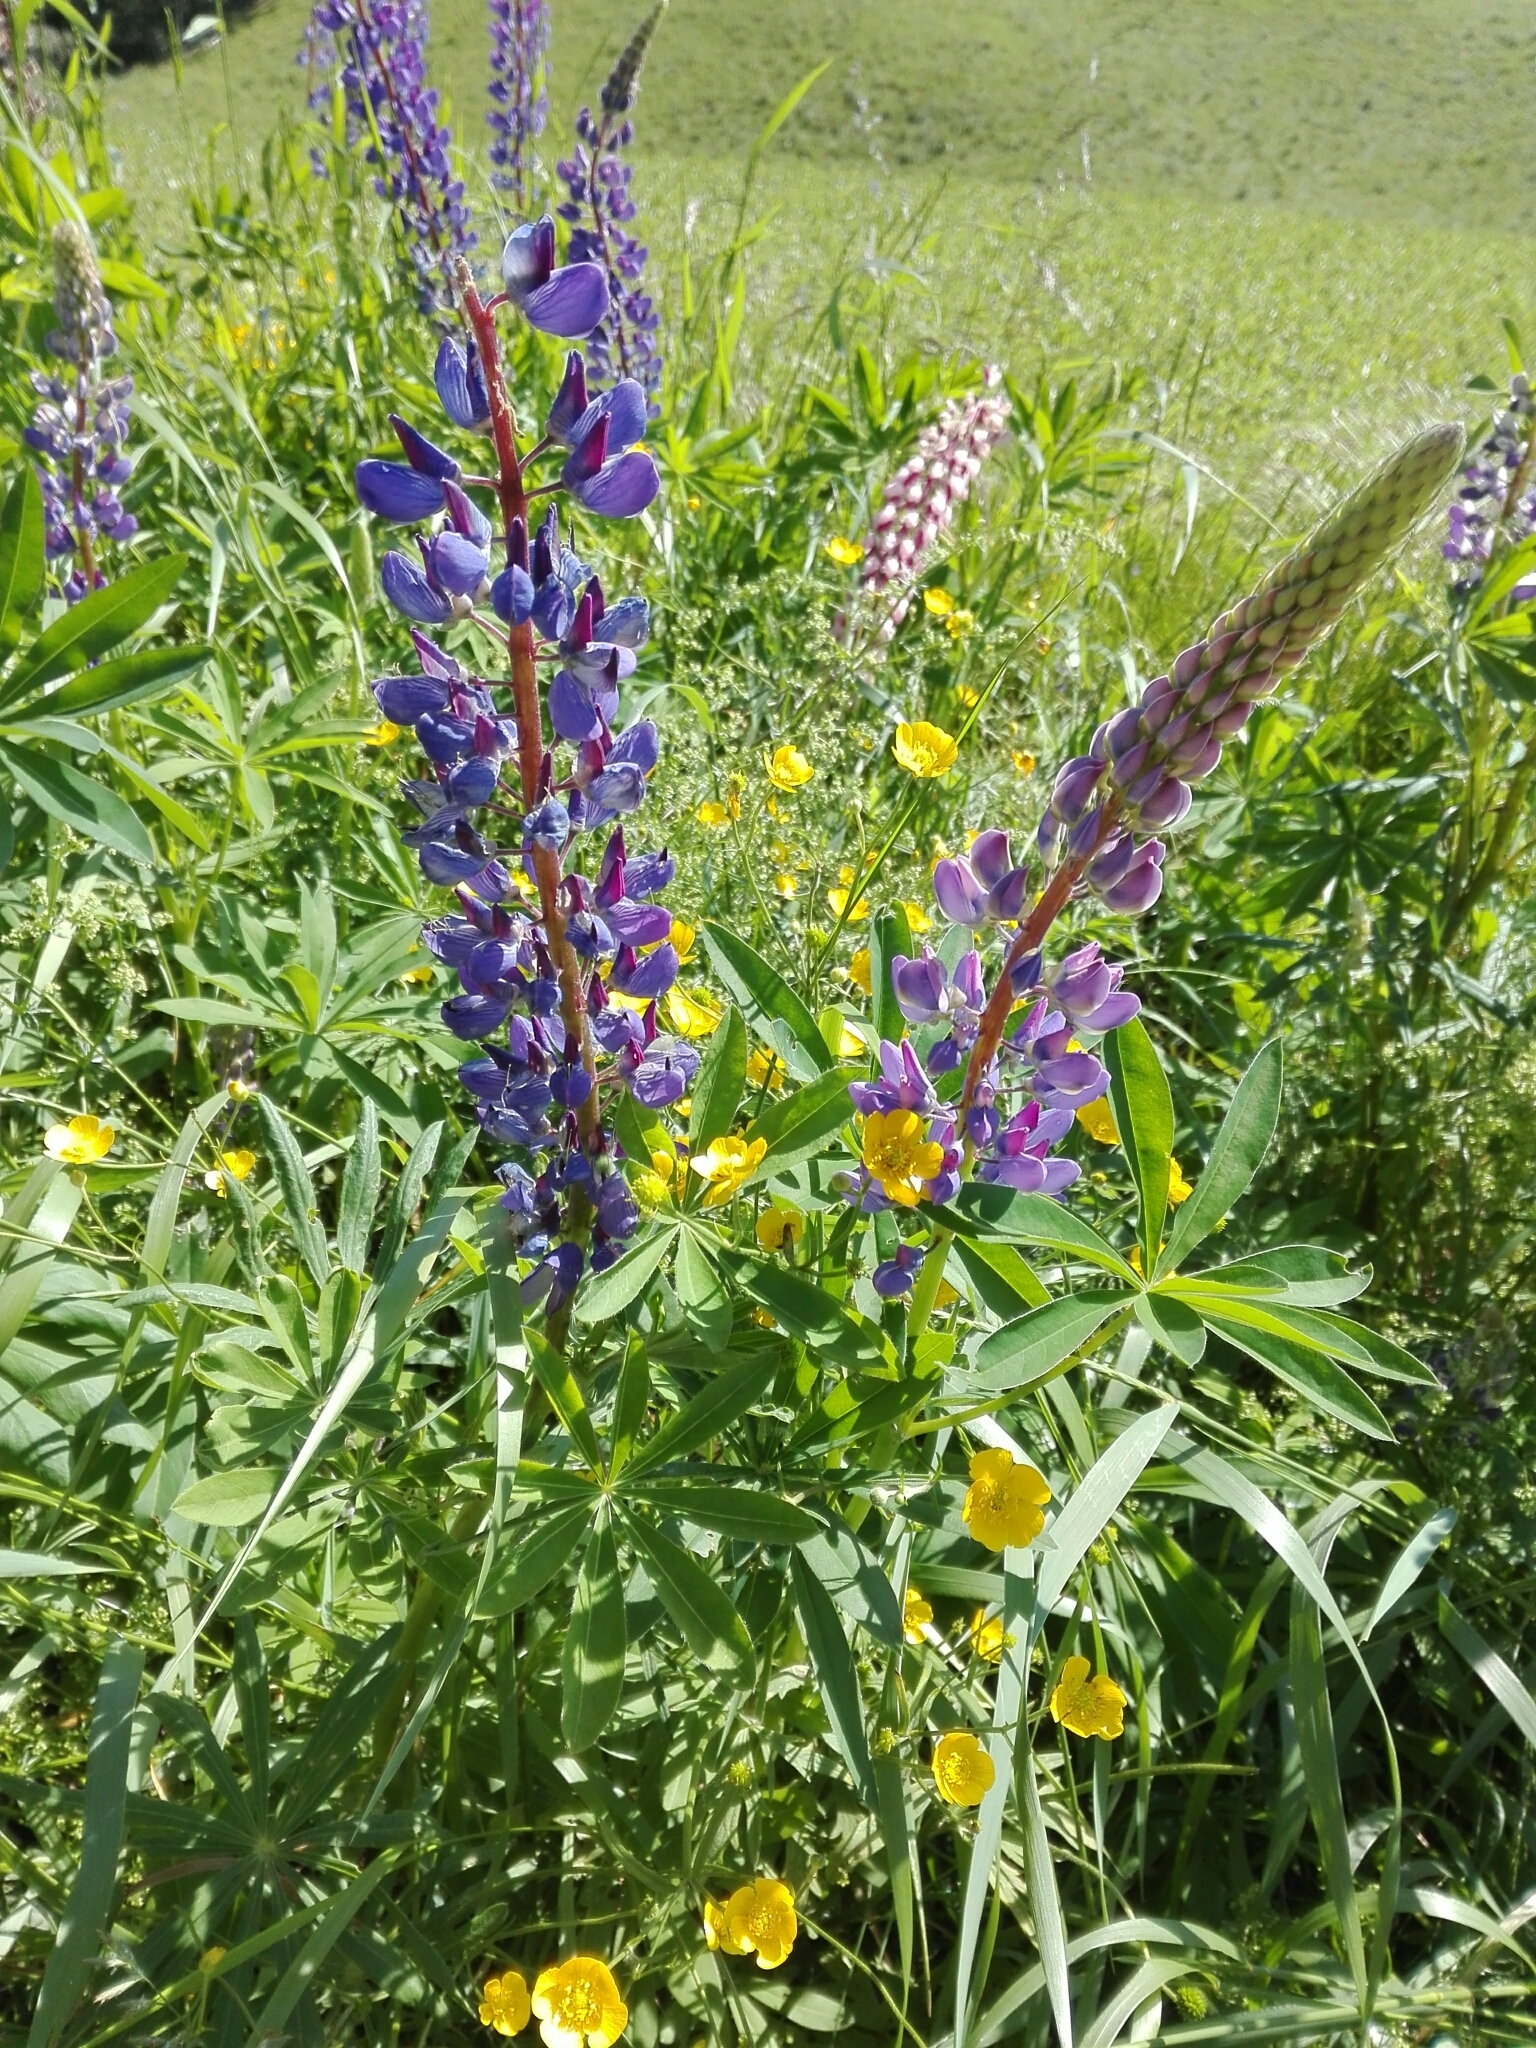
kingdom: Plantae
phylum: Tracheophyta
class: Magnoliopsida
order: Fabales
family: Fabaceae
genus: Lupinus
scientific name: Lupinus polyphyllus
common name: Garden lupin
